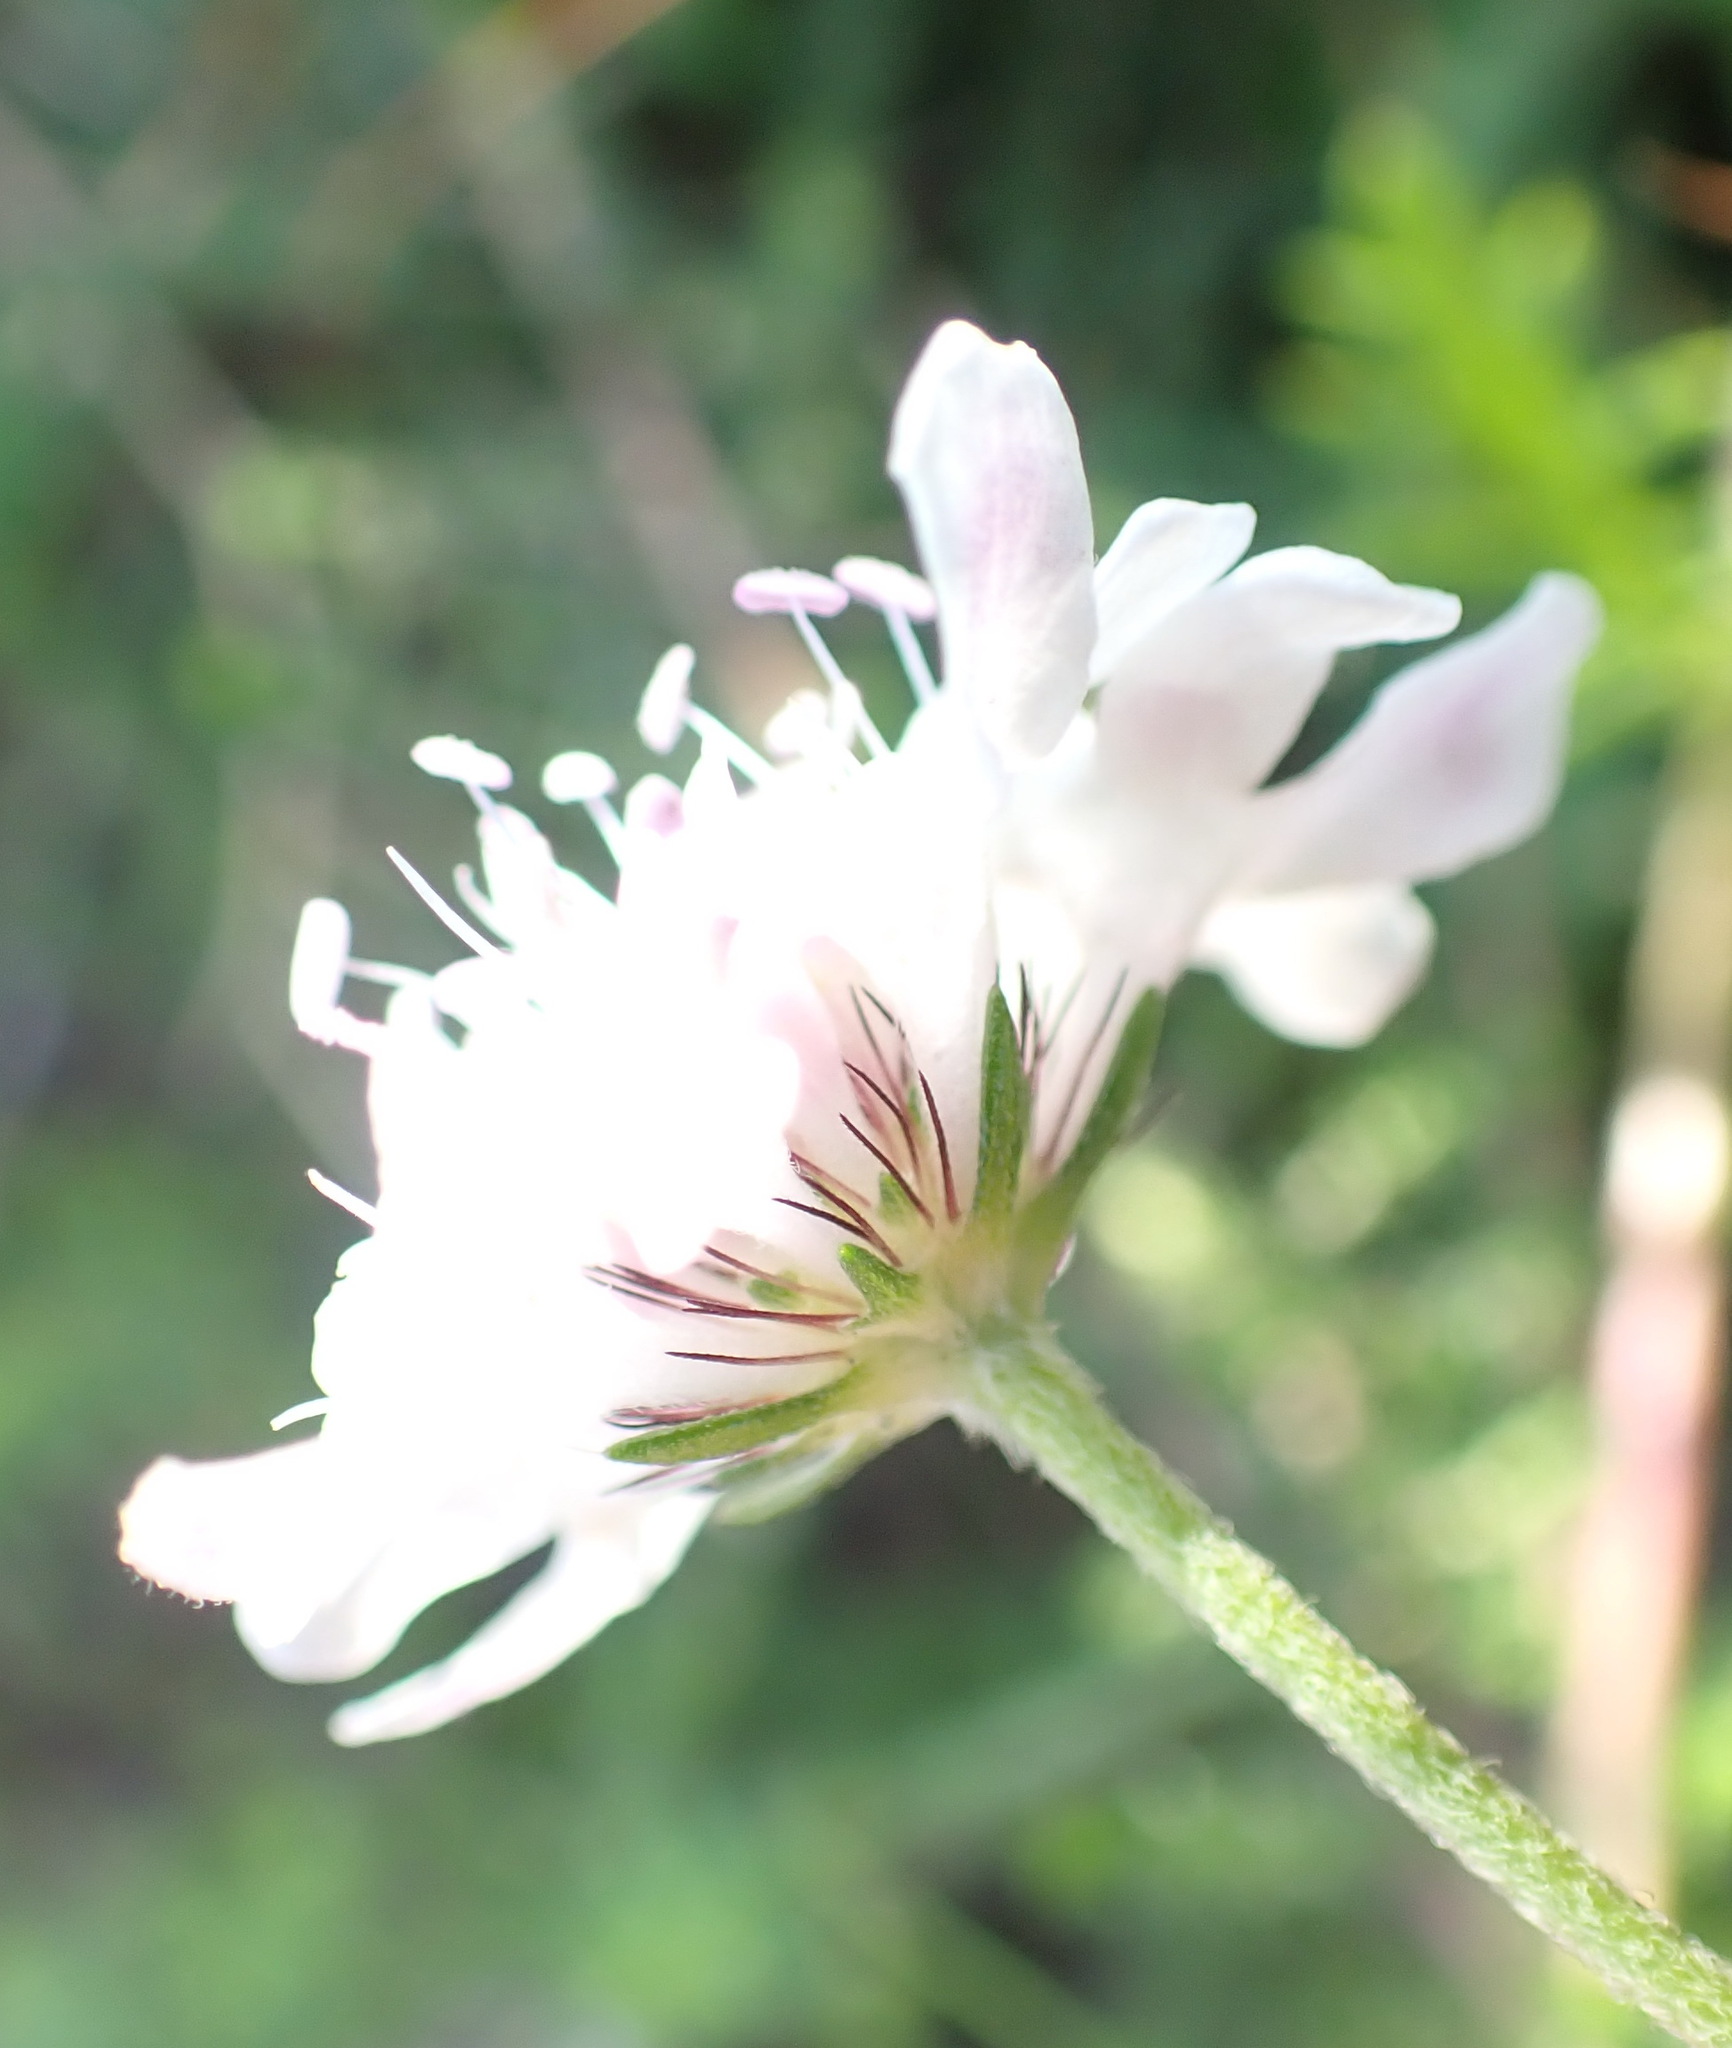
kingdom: Plantae
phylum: Tracheophyta
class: Magnoliopsida
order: Dipsacales
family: Caprifoliaceae
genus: Scabiosa
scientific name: Scabiosa columbaria
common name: Small scabious
